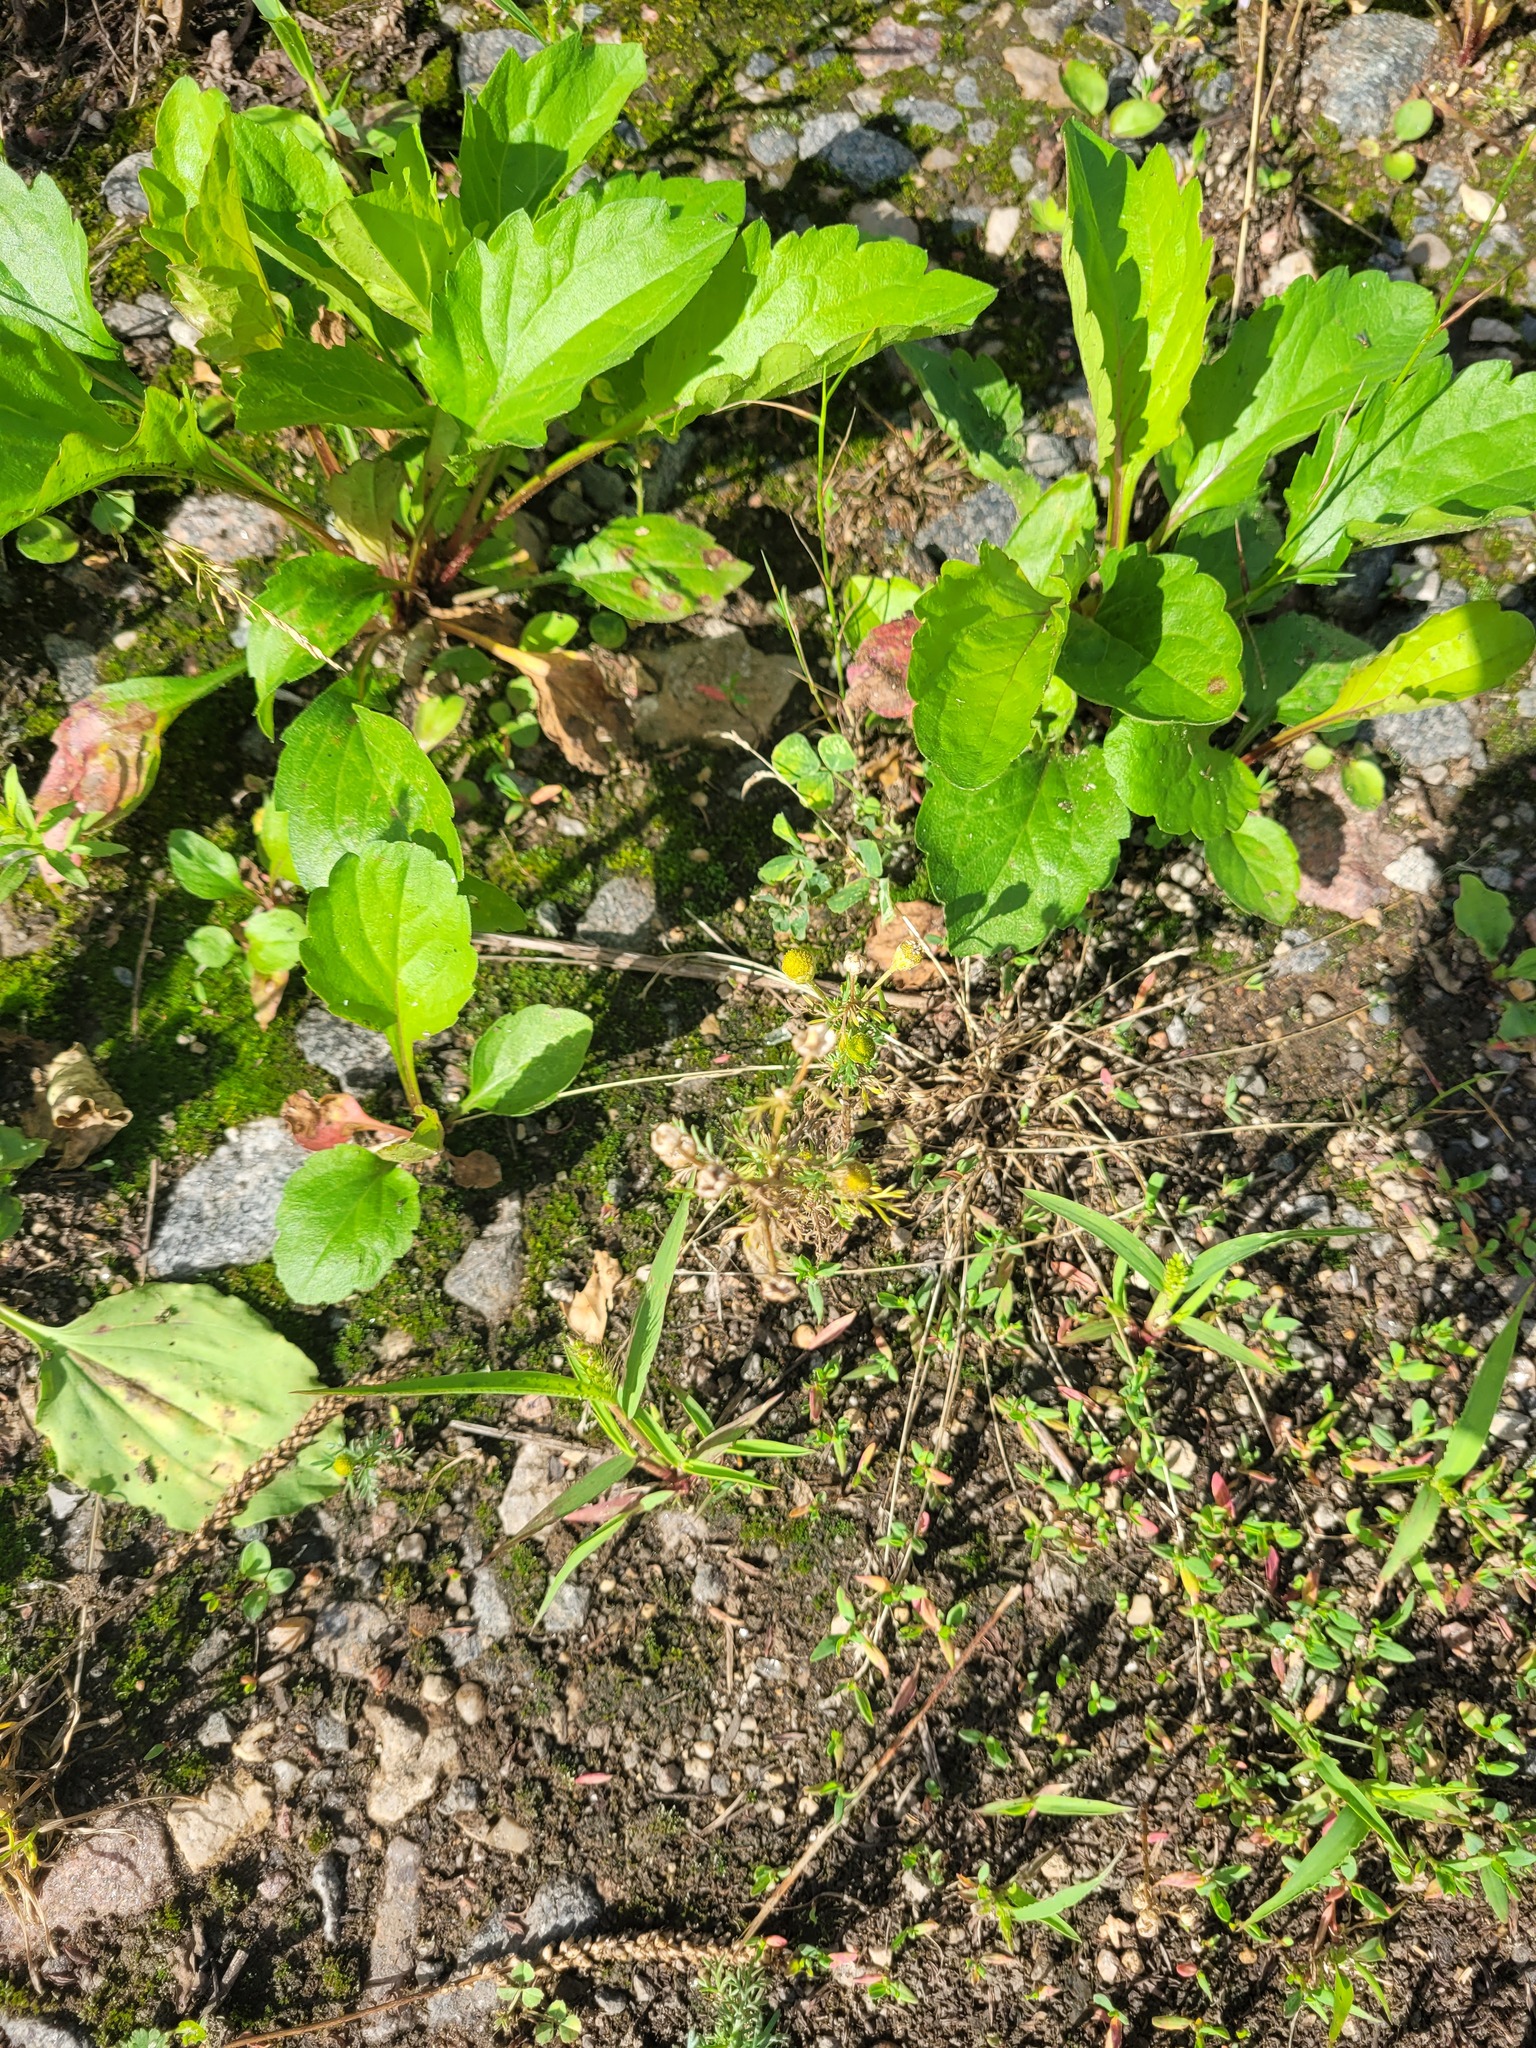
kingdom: Plantae
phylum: Tracheophyta
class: Magnoliopsida
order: Asterales
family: Asteraceae
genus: Matricaria
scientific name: Matricaria discoidea
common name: Disc mayweed
